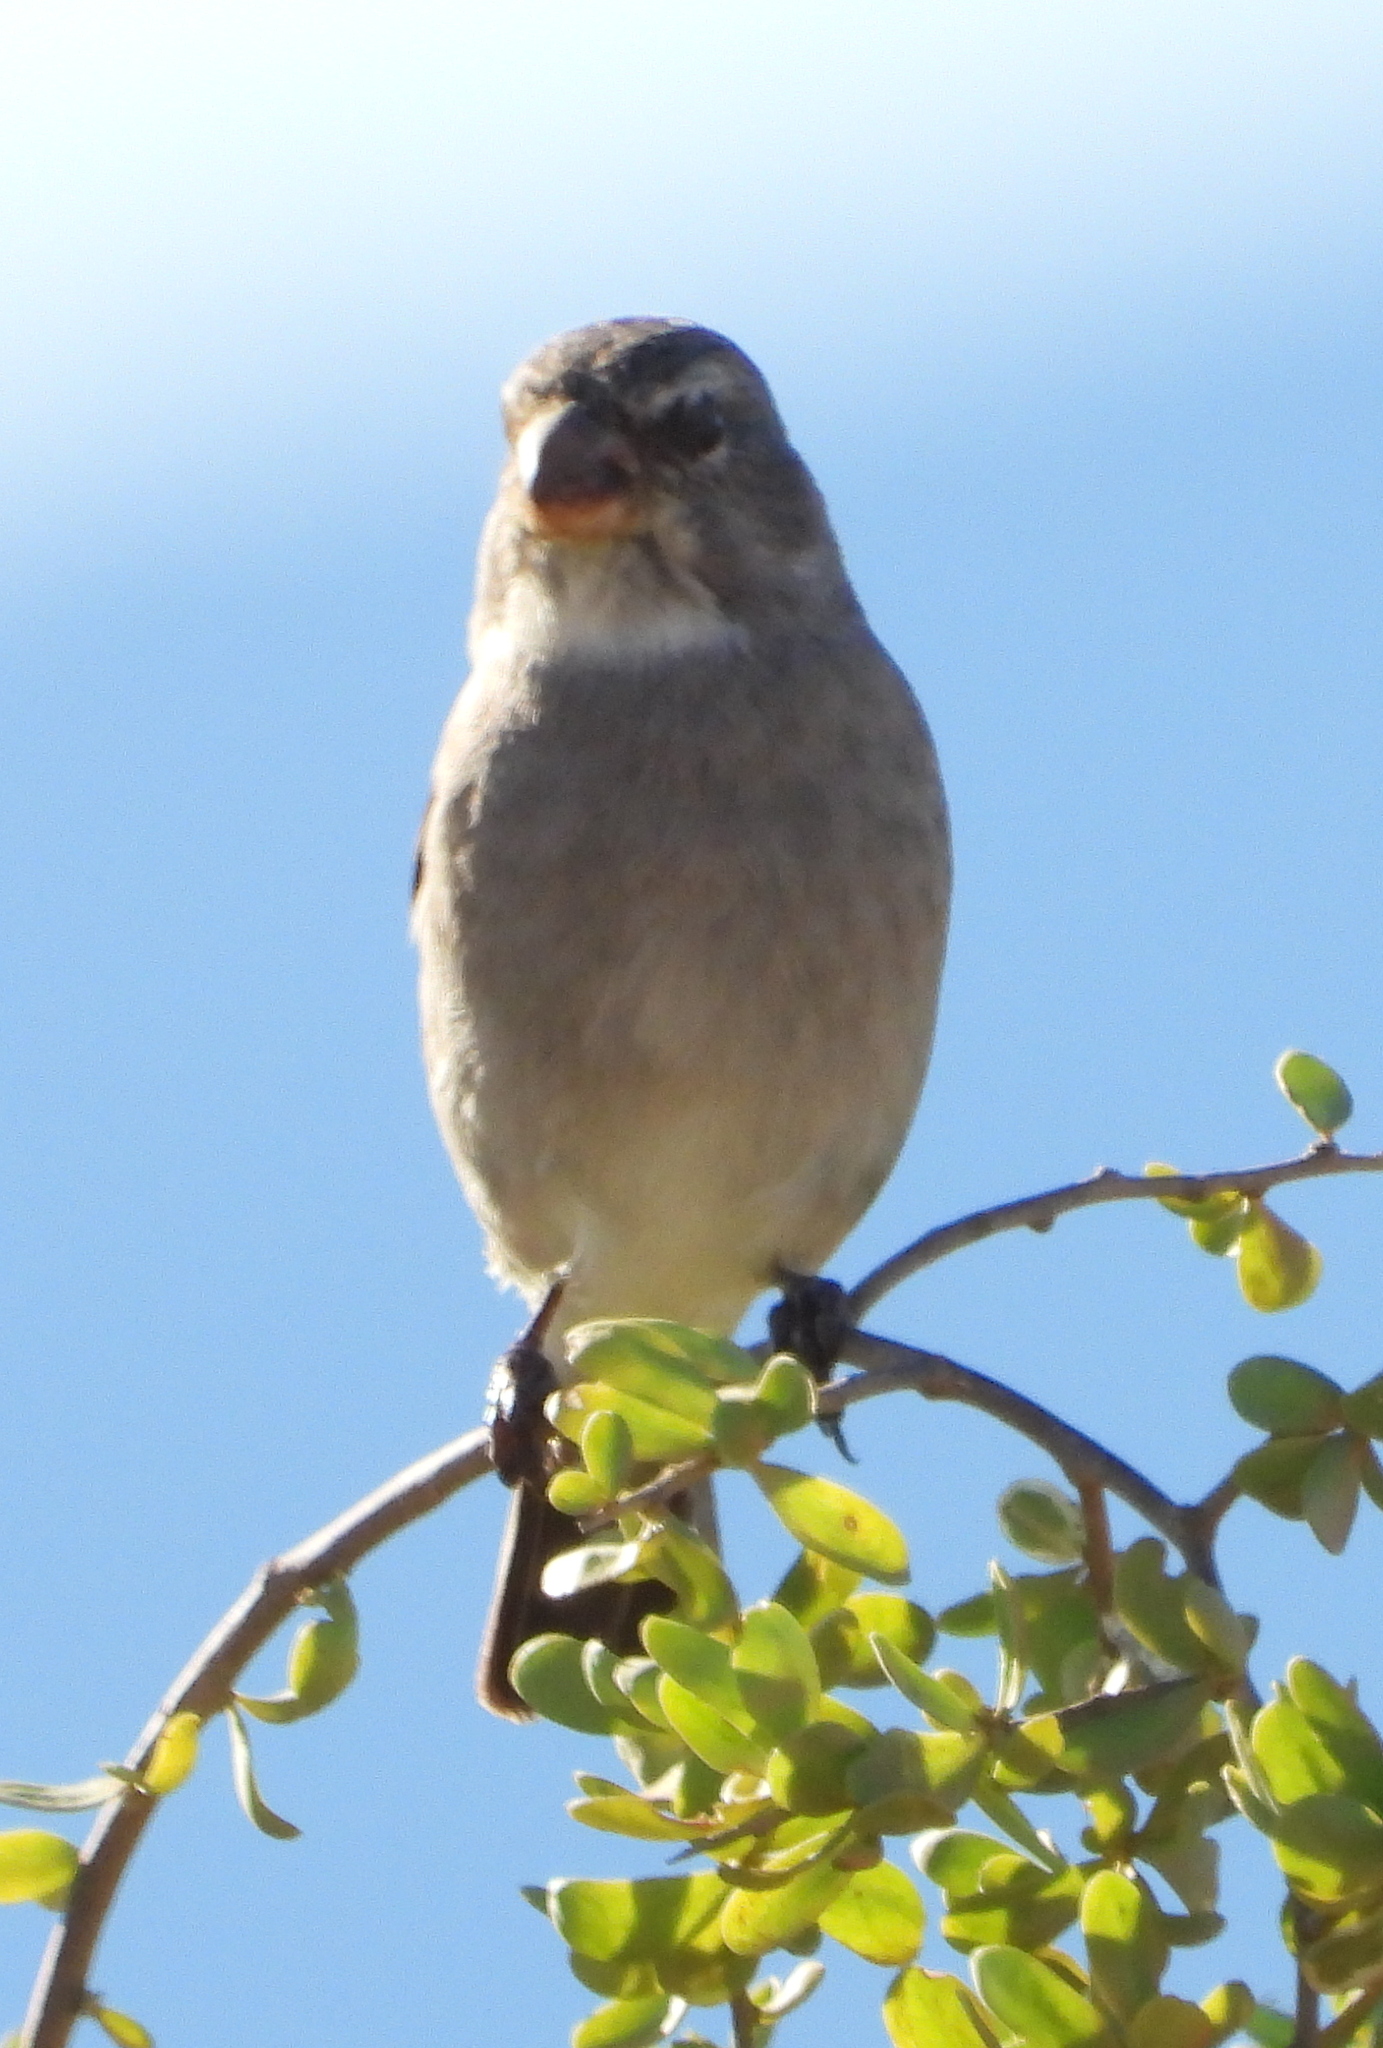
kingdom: Animalia
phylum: Chordata
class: Aves
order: Passeriformes
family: Fringillidae
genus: Crithagra
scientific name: Crithagra albogularis
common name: White-throated canary
